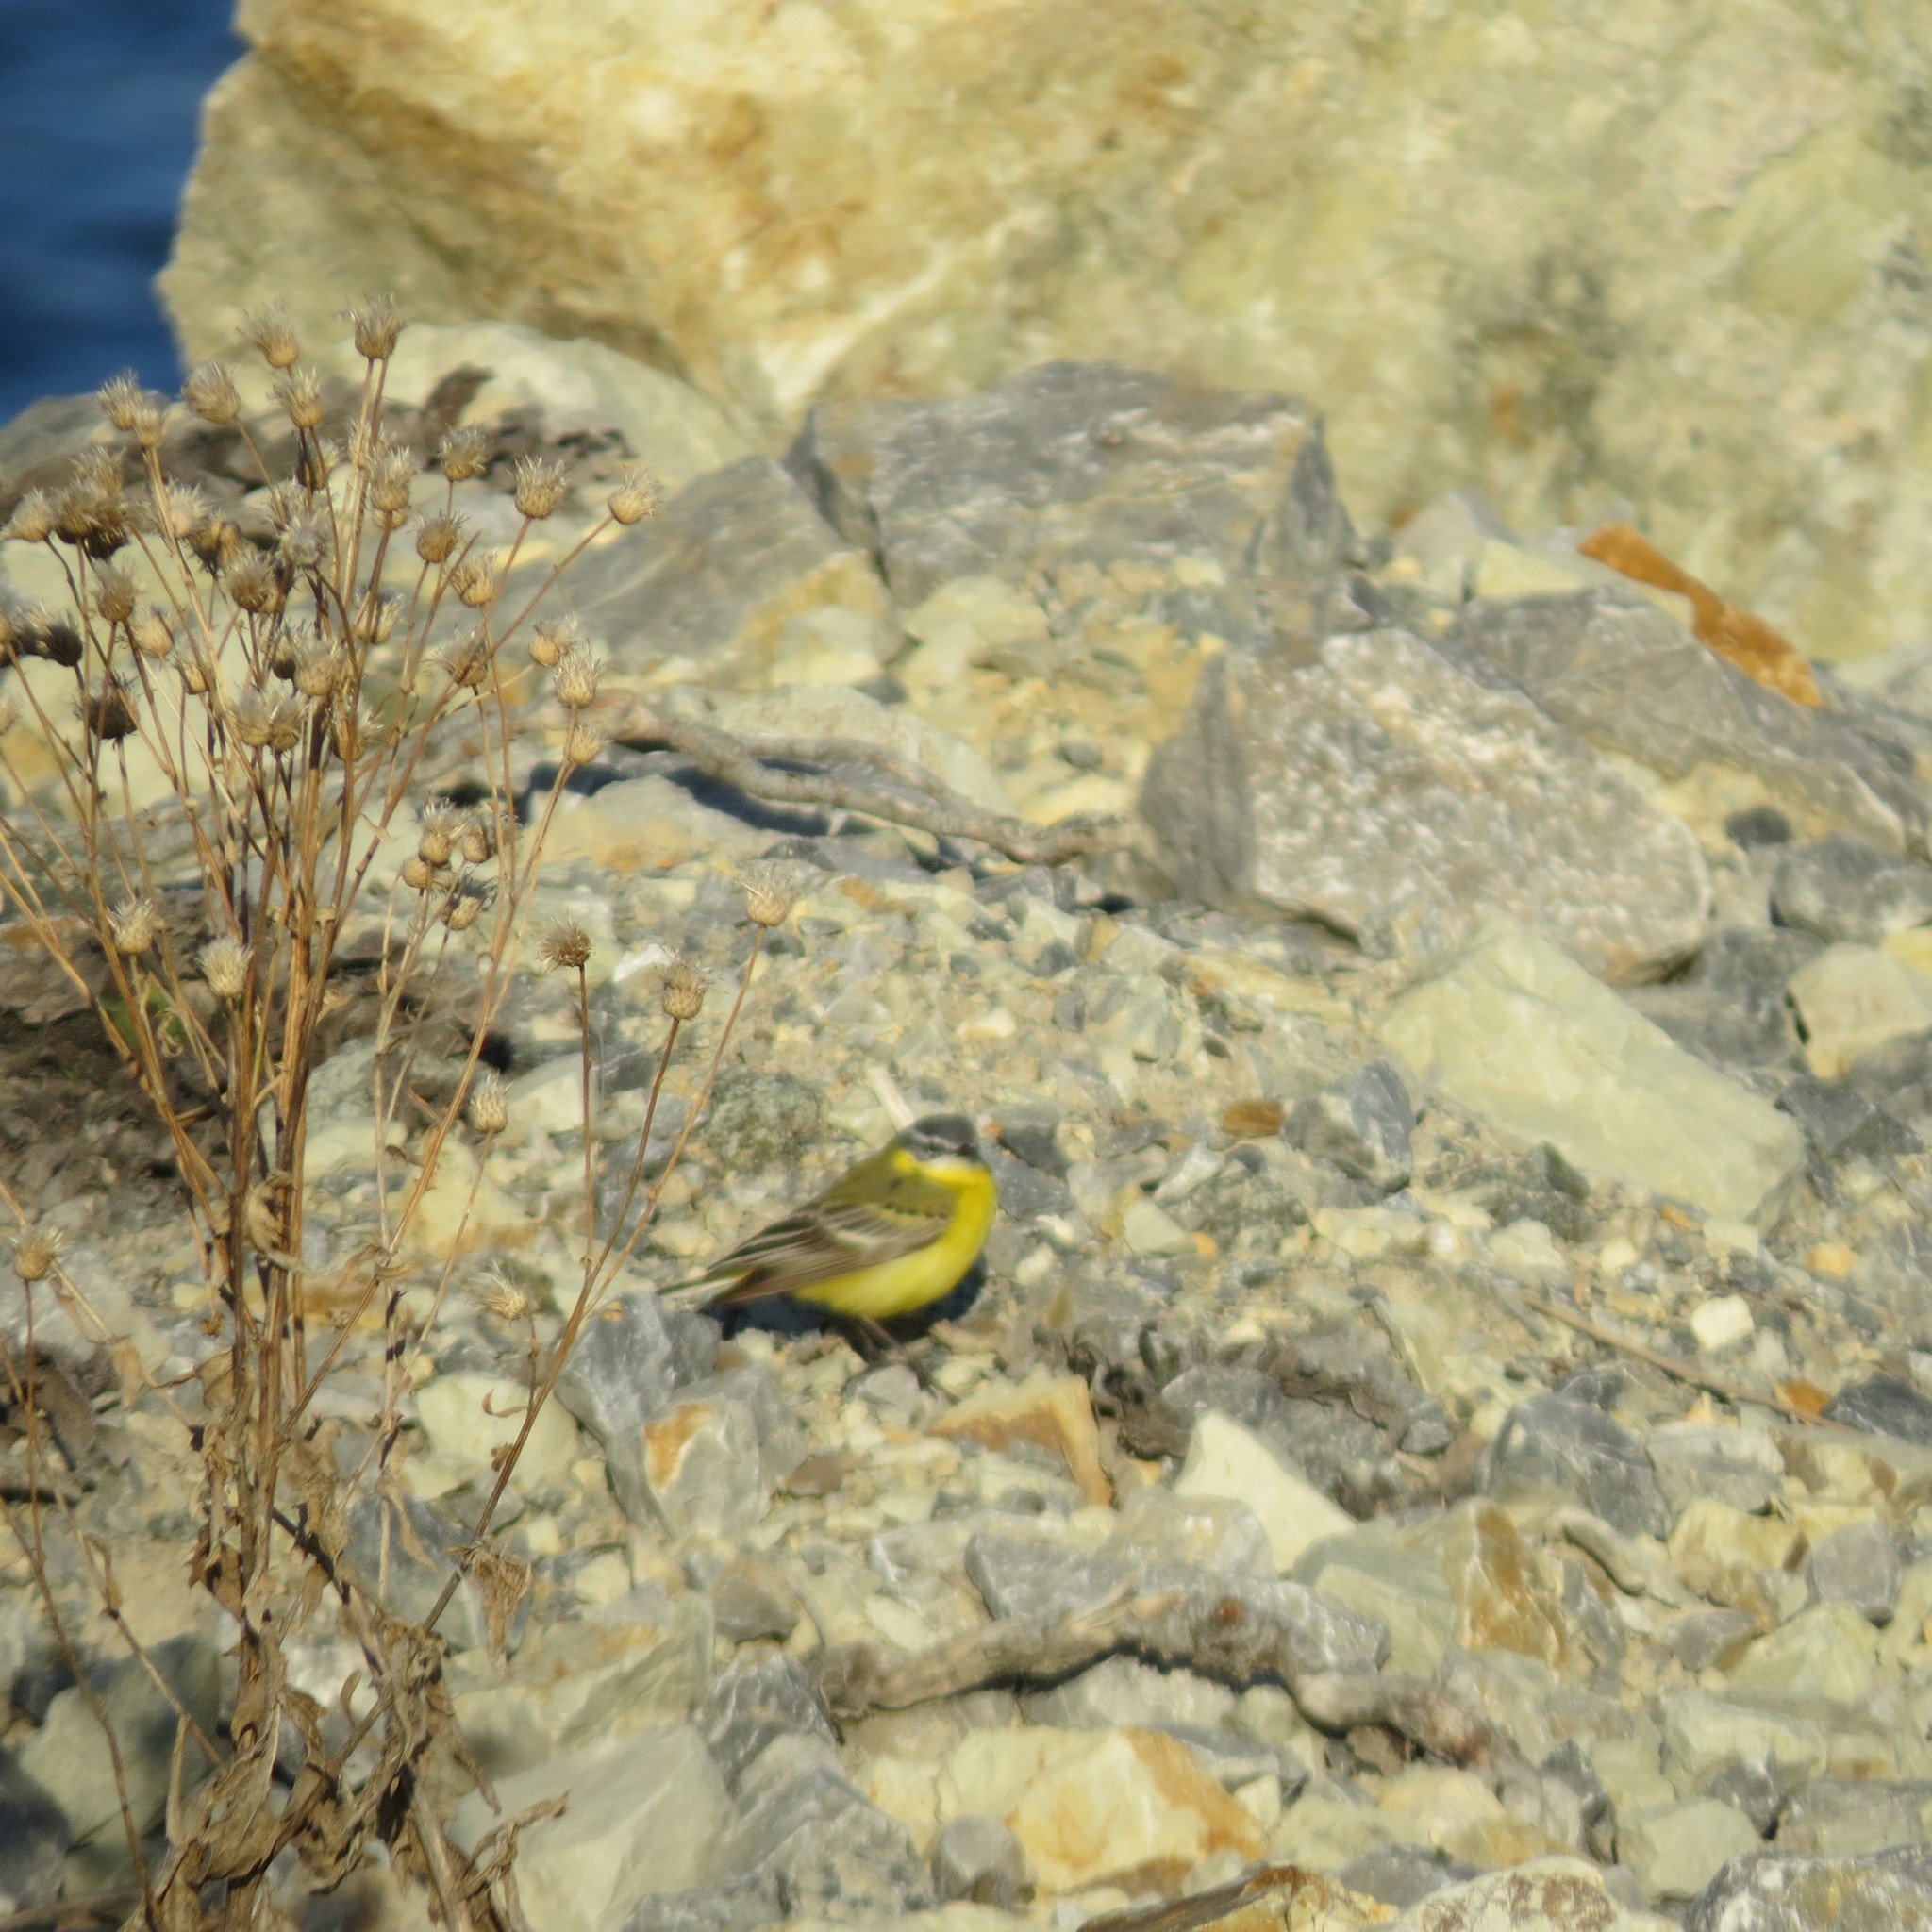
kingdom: Animalia
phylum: Chordata
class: Aves
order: Passeriformes
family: Motacillidae
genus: Motacilla
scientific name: Motacilla flava
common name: Western yellow wagtail
